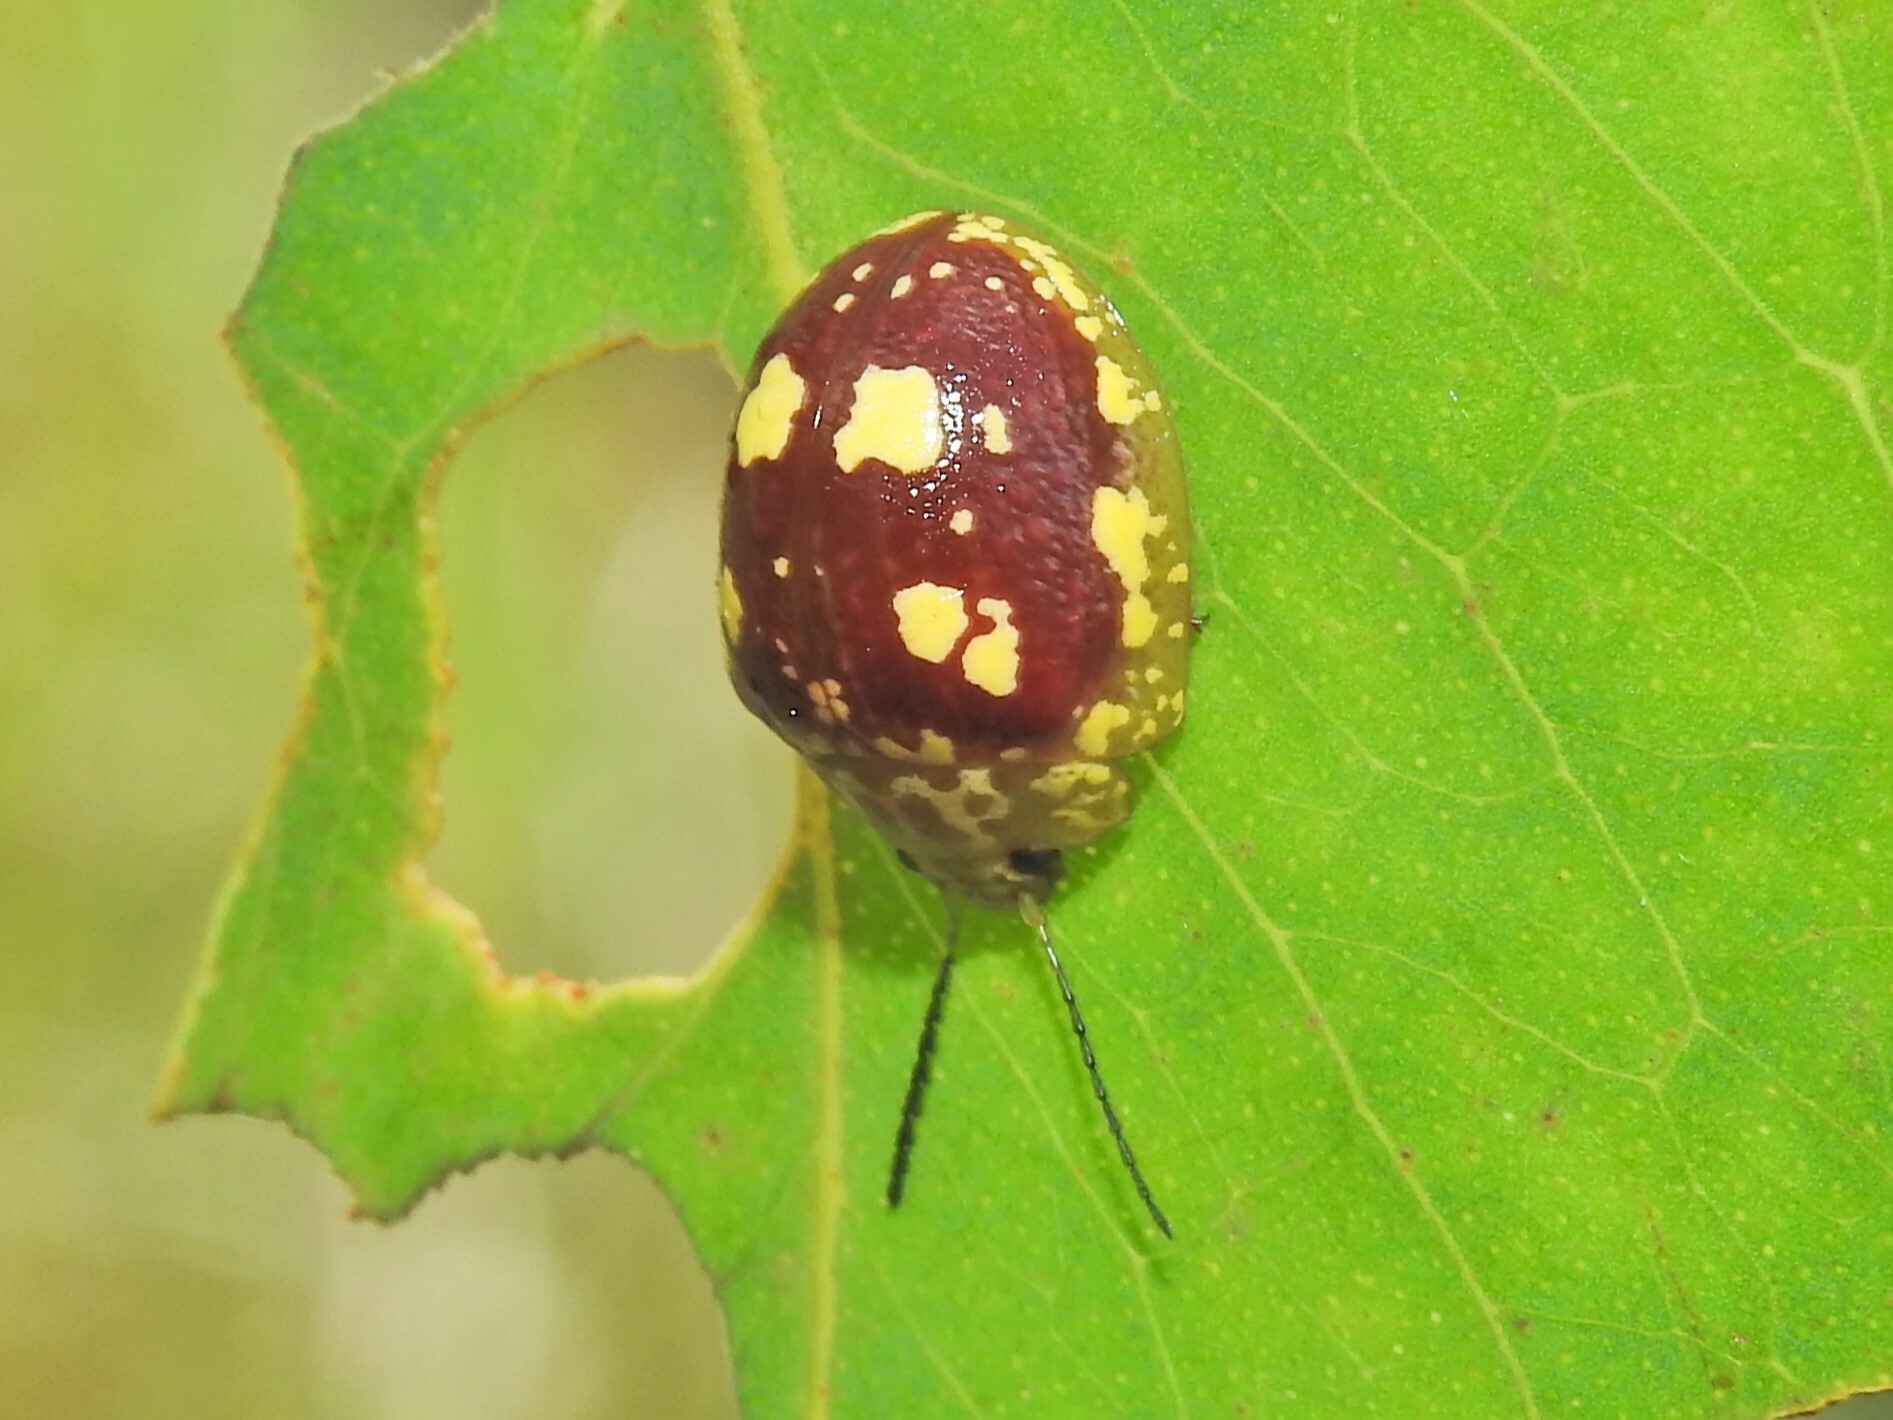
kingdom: Animalia
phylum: Arthropoda
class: Insecta
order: Coleoptera
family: Chrysomelidae
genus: Paropsis
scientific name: Paropsis maculata
